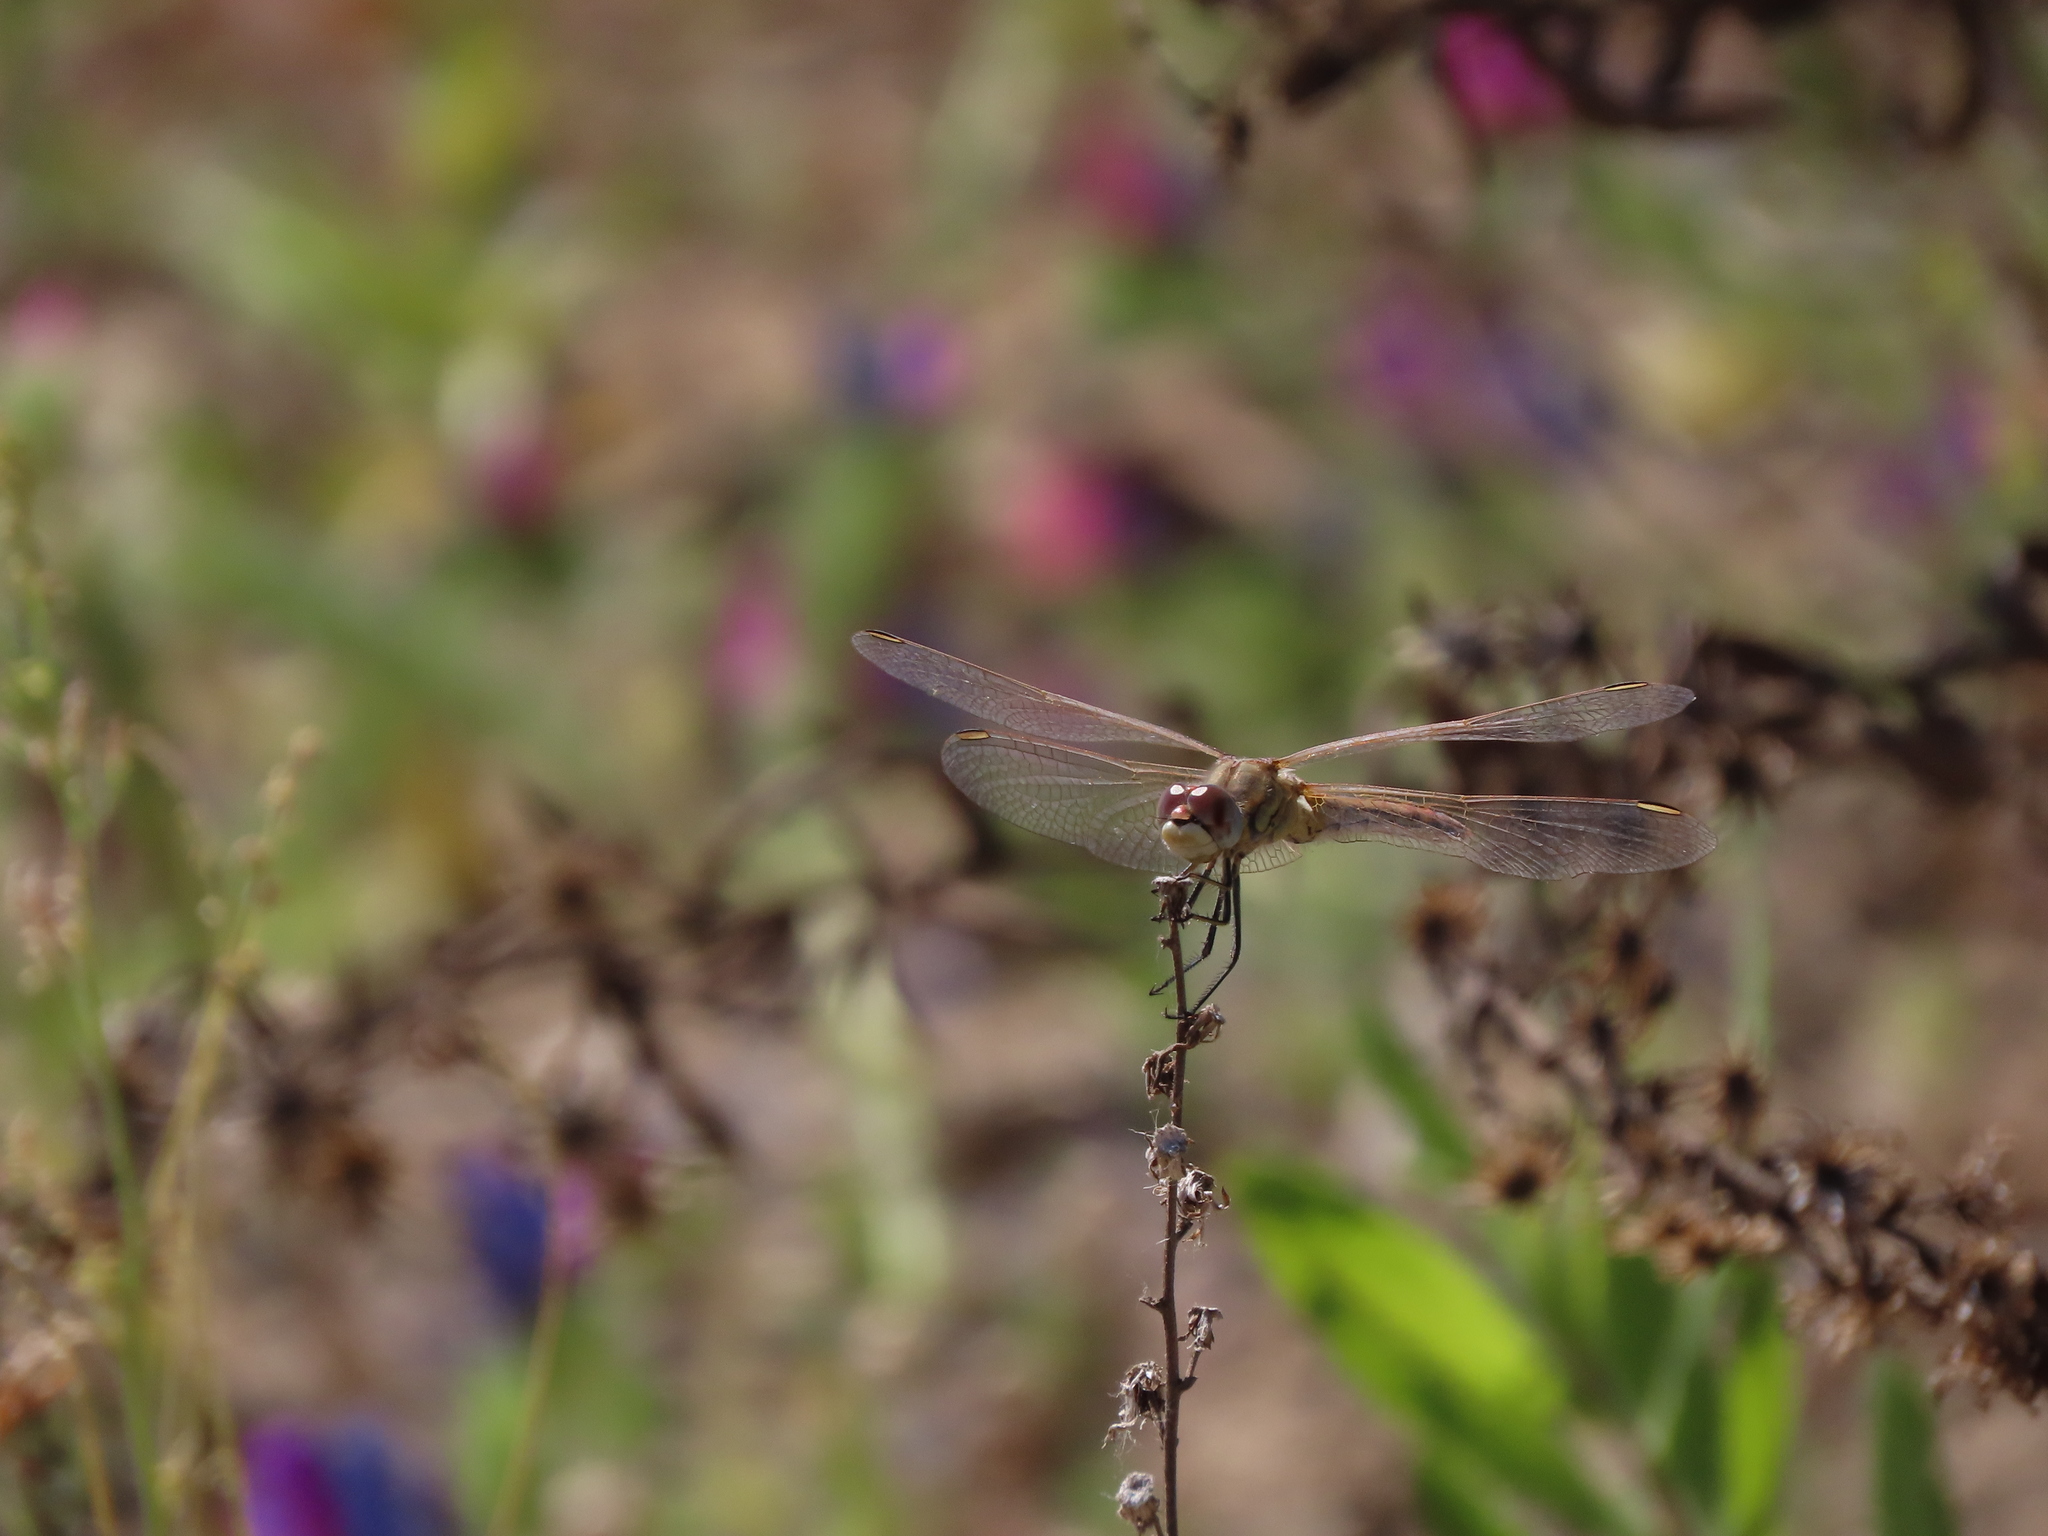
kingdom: Animalia
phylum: Arthropoda
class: Insecta
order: Odonata
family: Libellulidae
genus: Sympetrum
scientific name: Sympetrum fonscolombii
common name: Red-veined darter
